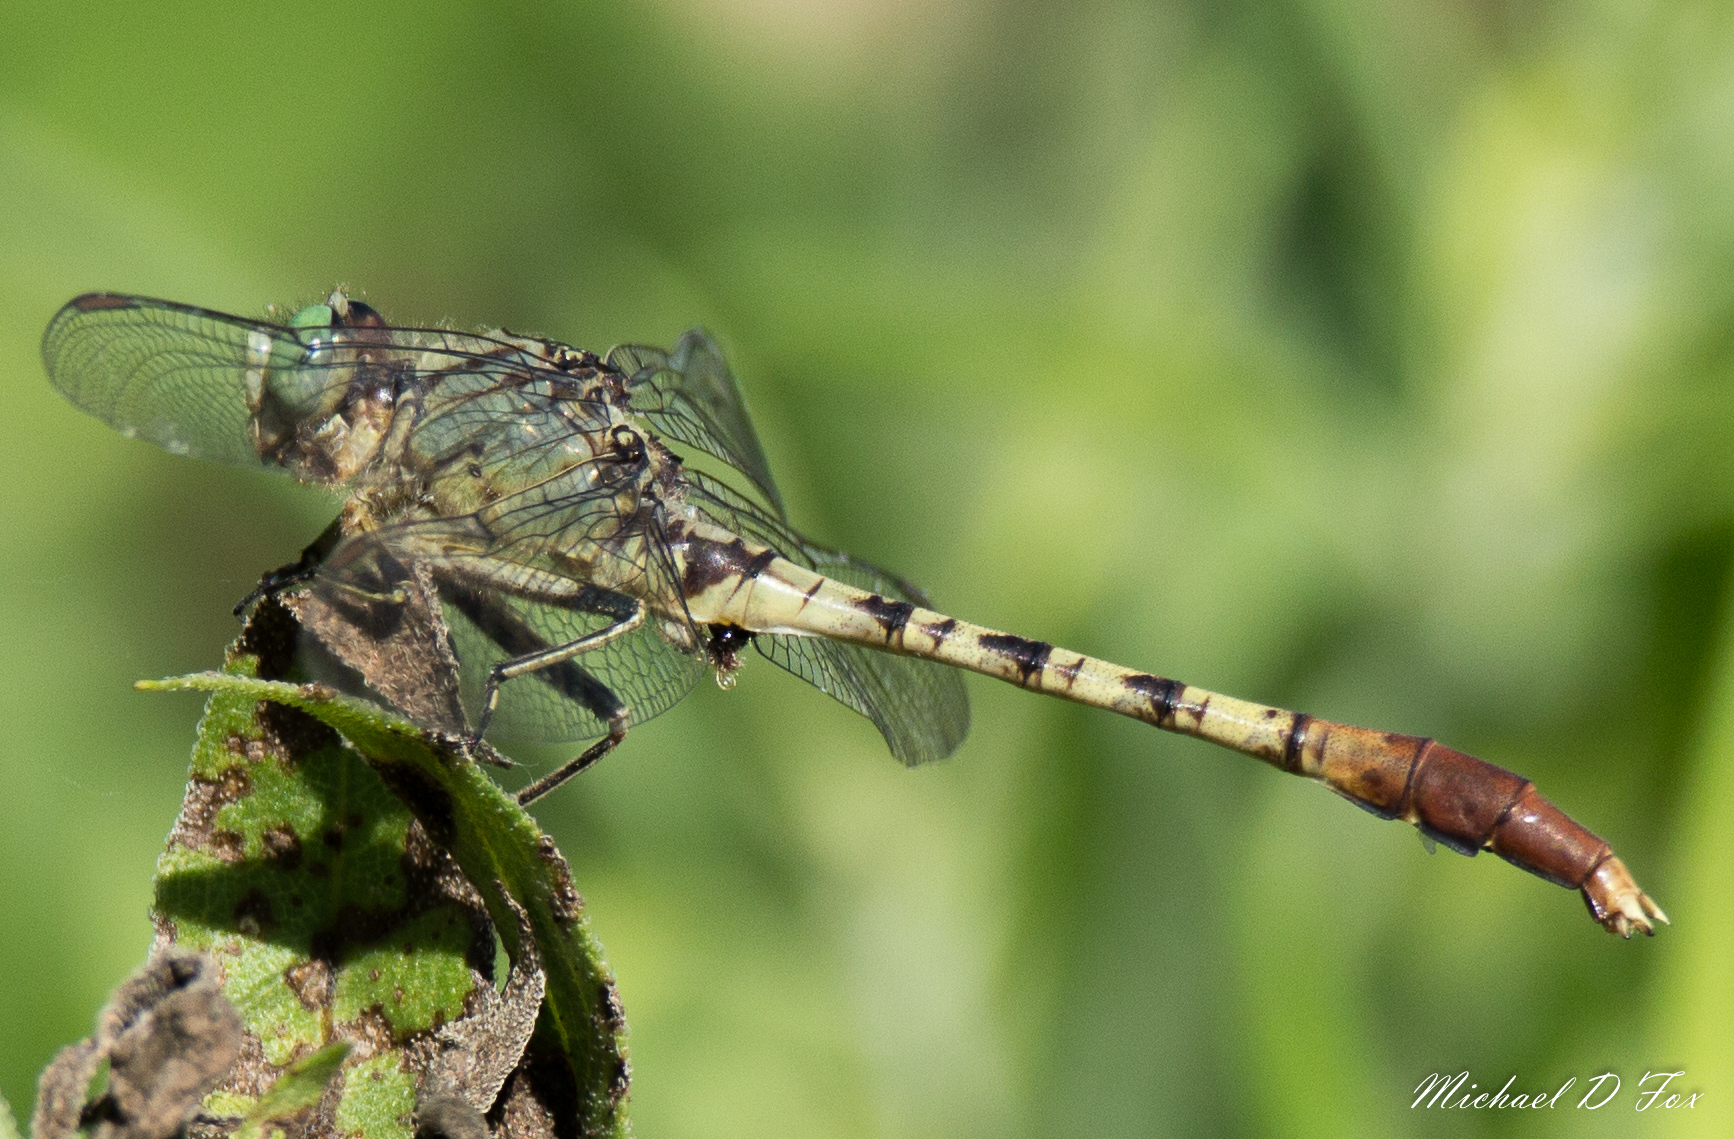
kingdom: Animalia
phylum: Arthropoda
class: Insecta
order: Odonata
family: Gomphidae
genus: Arigomphus
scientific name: Arigomphus submedianus
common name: Jade clubtail
